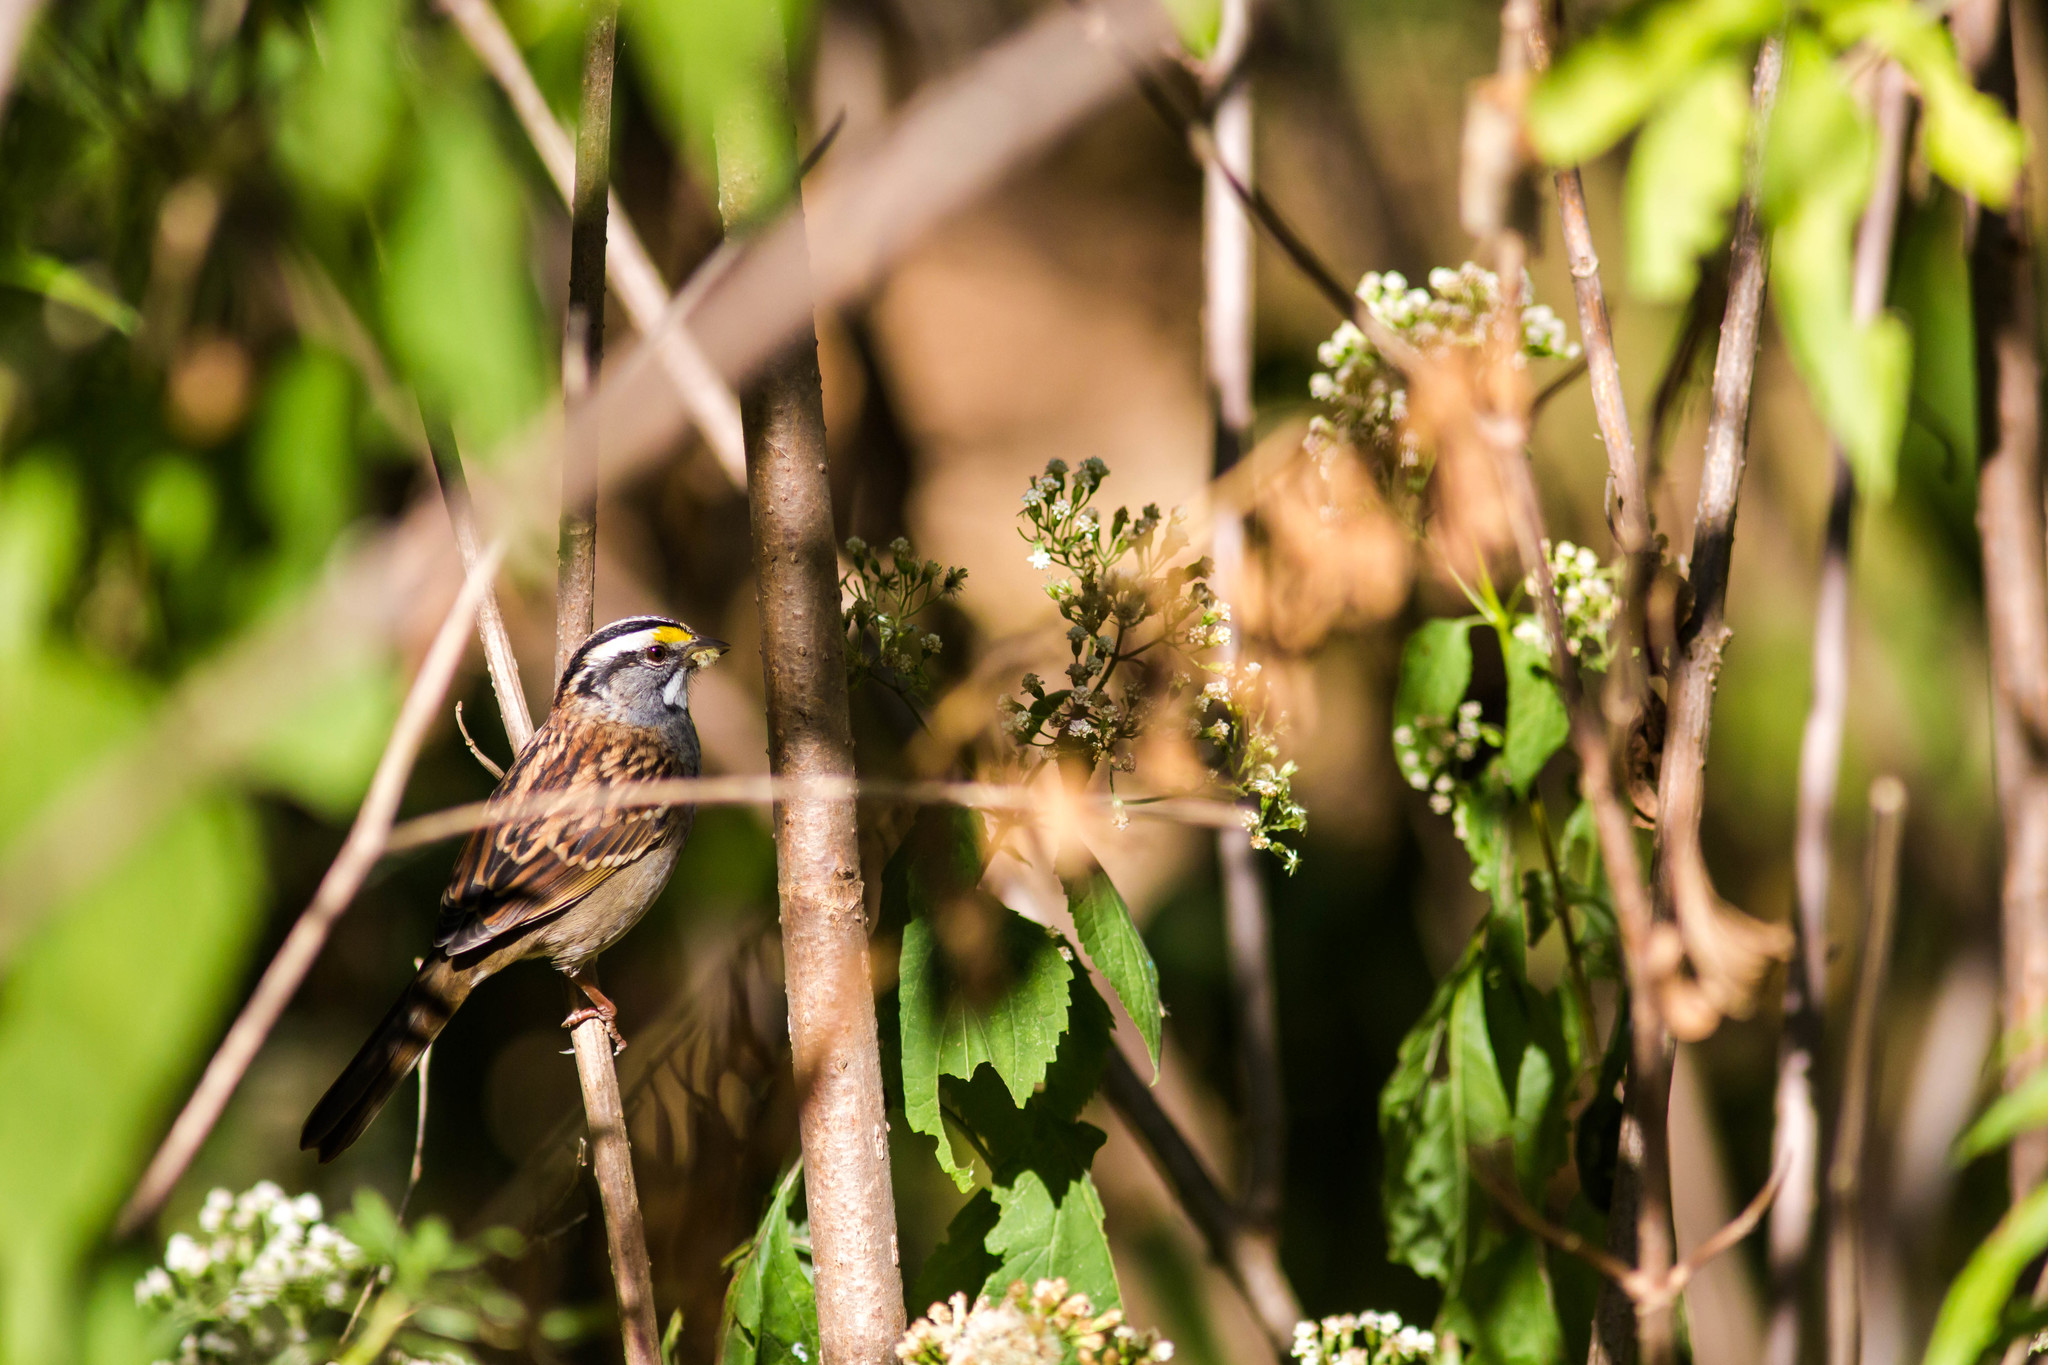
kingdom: Animalia
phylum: Chordata
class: Aves
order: Passeriformes
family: Passerellidae
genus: Zonotrichia
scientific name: Zonotrichia albicollis
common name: White-throated sparrow
